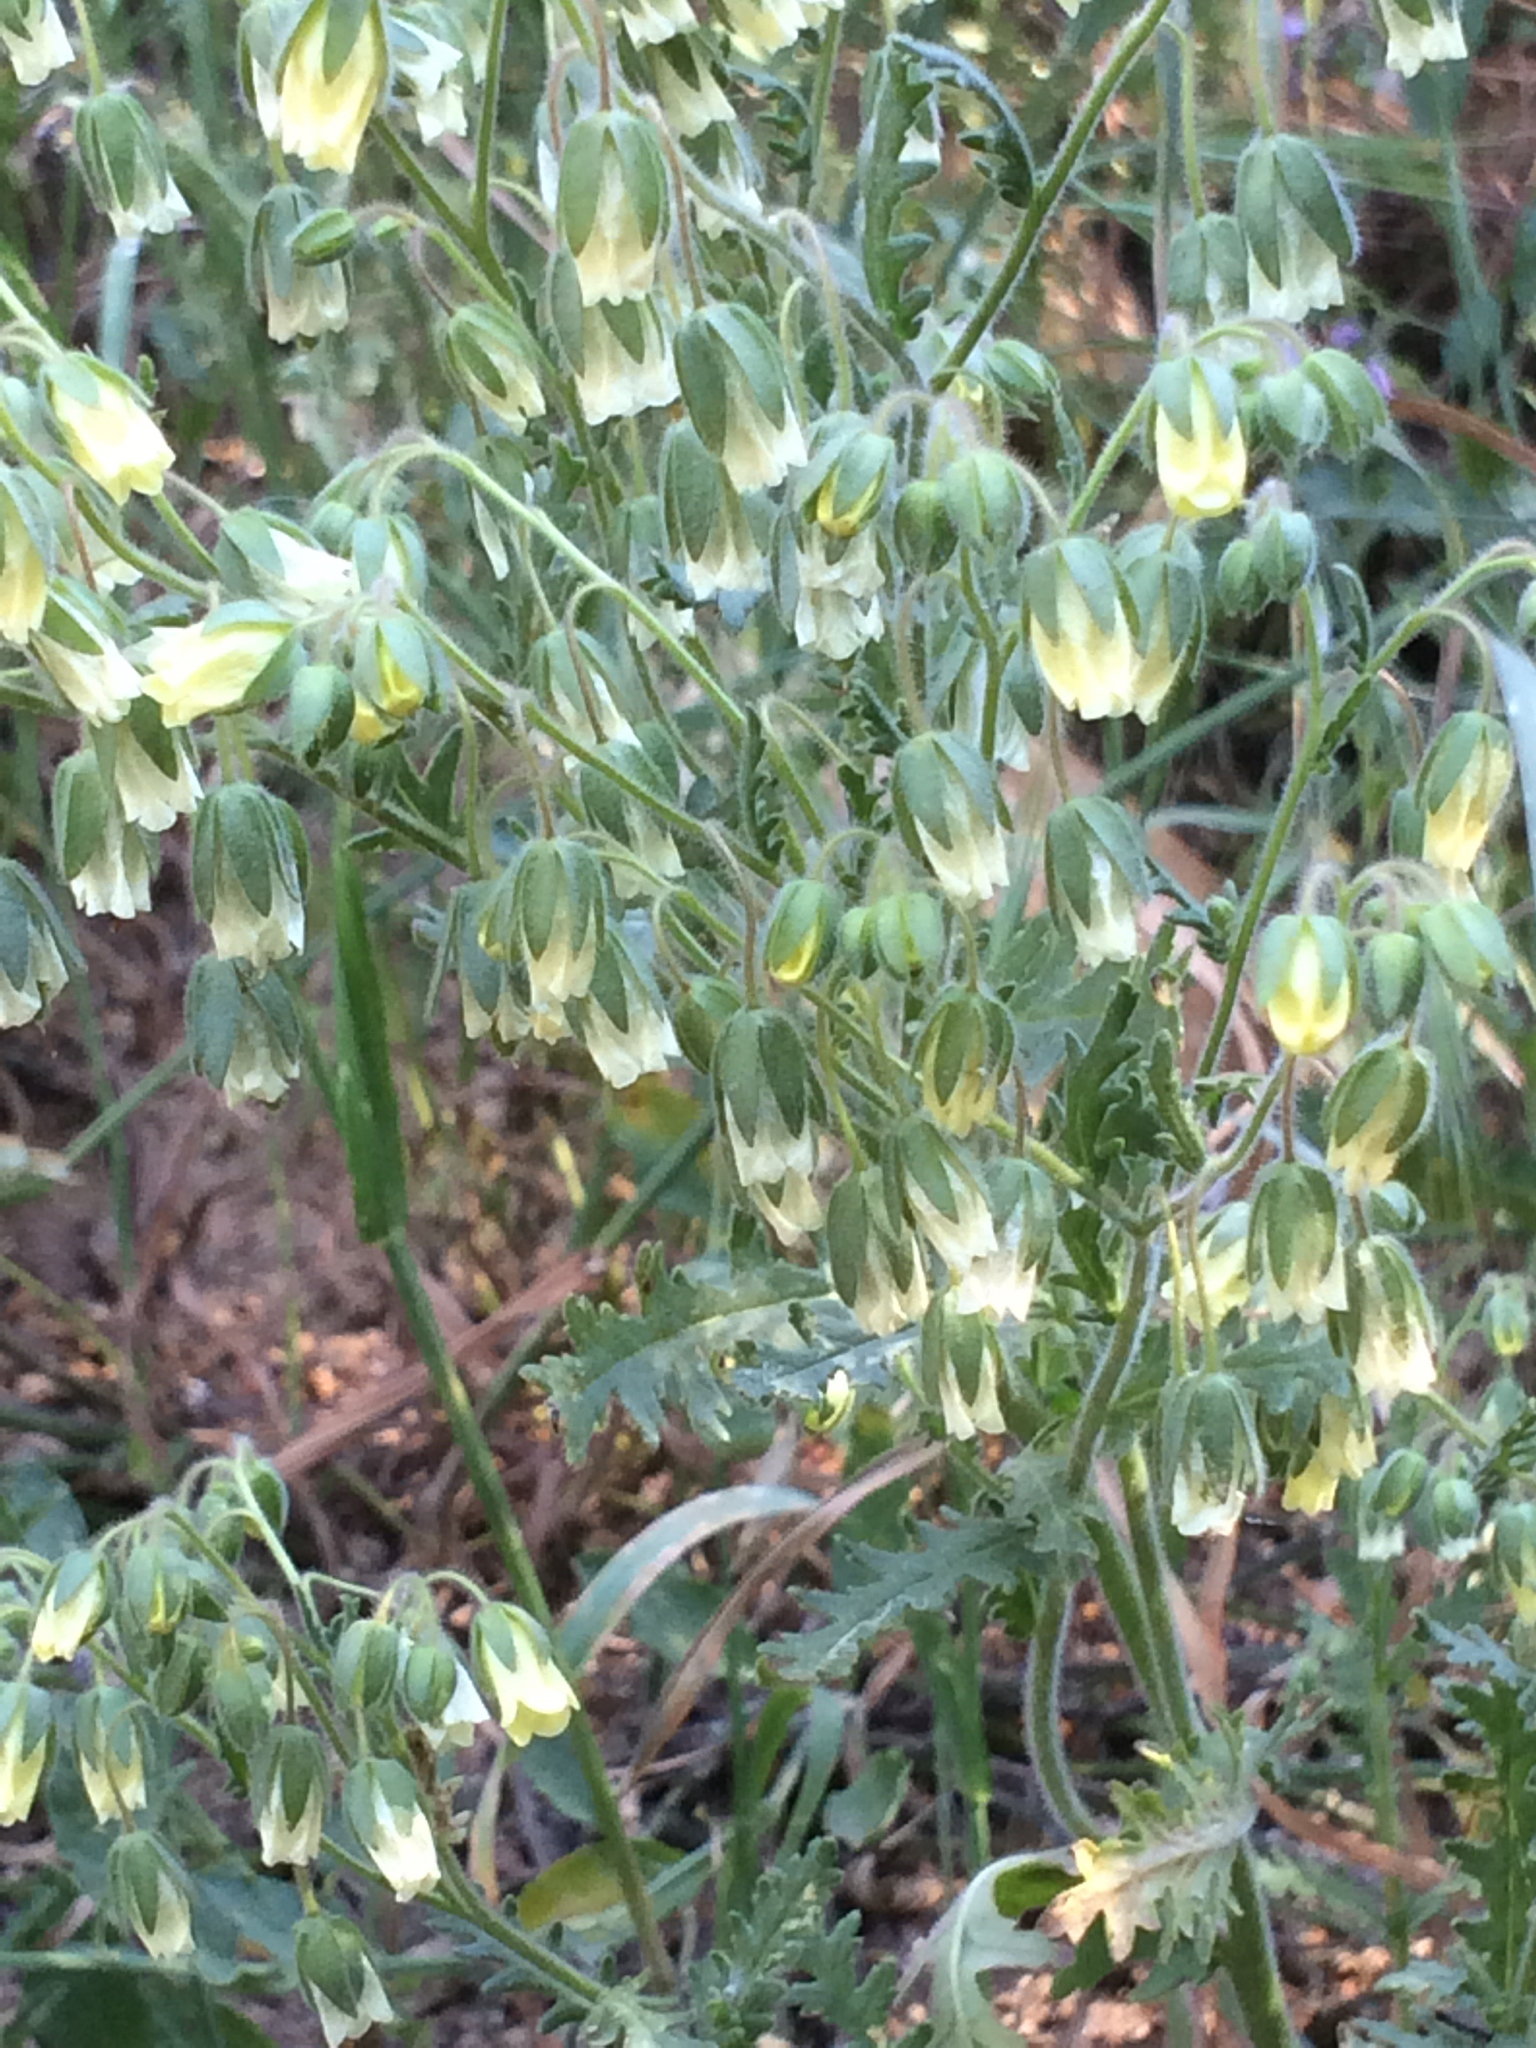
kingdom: Plantae
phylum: Tracheophyta
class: Magnoliopsida
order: Boraginales
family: Hydrophyllaceae
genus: Emmenanthe
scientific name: Emmenanthe penduliflora
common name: Whispering-bells
